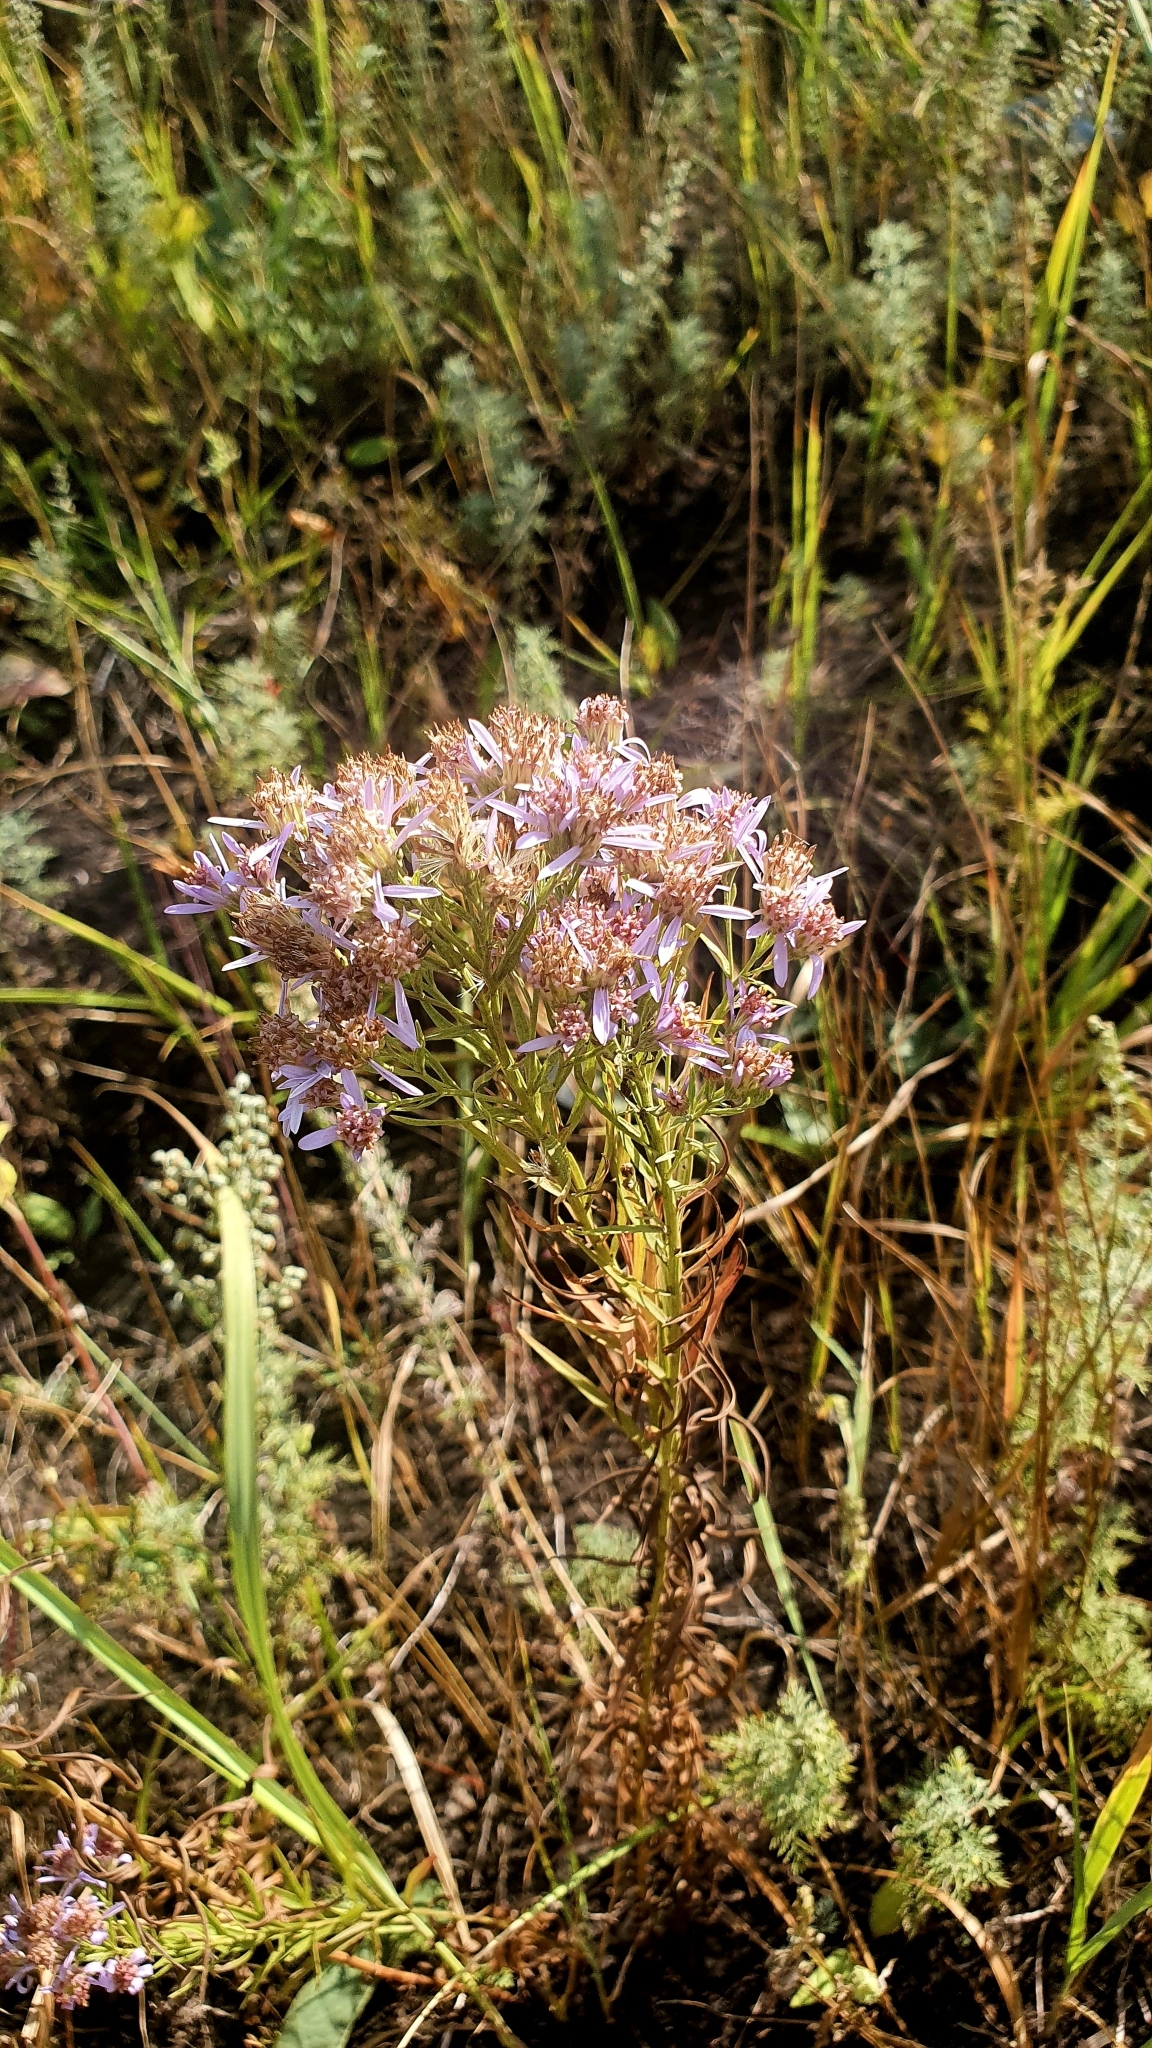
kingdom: Plantae
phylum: Tracheophyta
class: Magnoliopsida
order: Asterales
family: Asteraceae
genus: Galatella
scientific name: Galatella sedifolia
